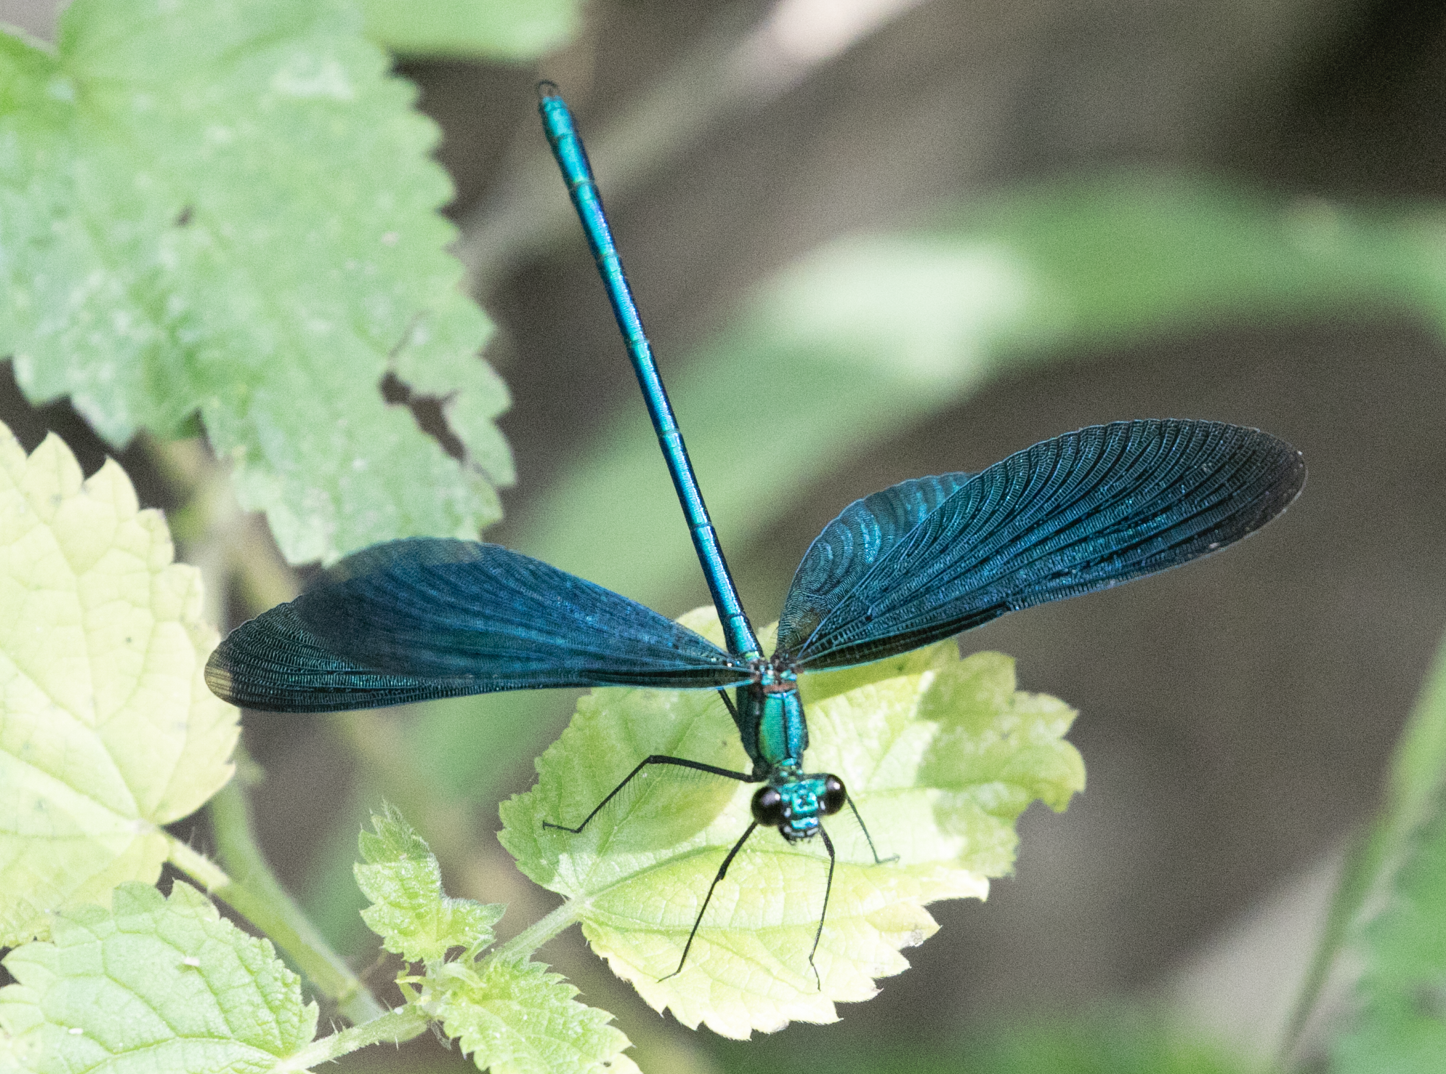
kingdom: Animalia
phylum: Arthropoda
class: Insecta
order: Odonata
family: Calopterygidae
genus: Calopteryx
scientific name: Calopteryx virgo
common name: Beautiful demoiselle
